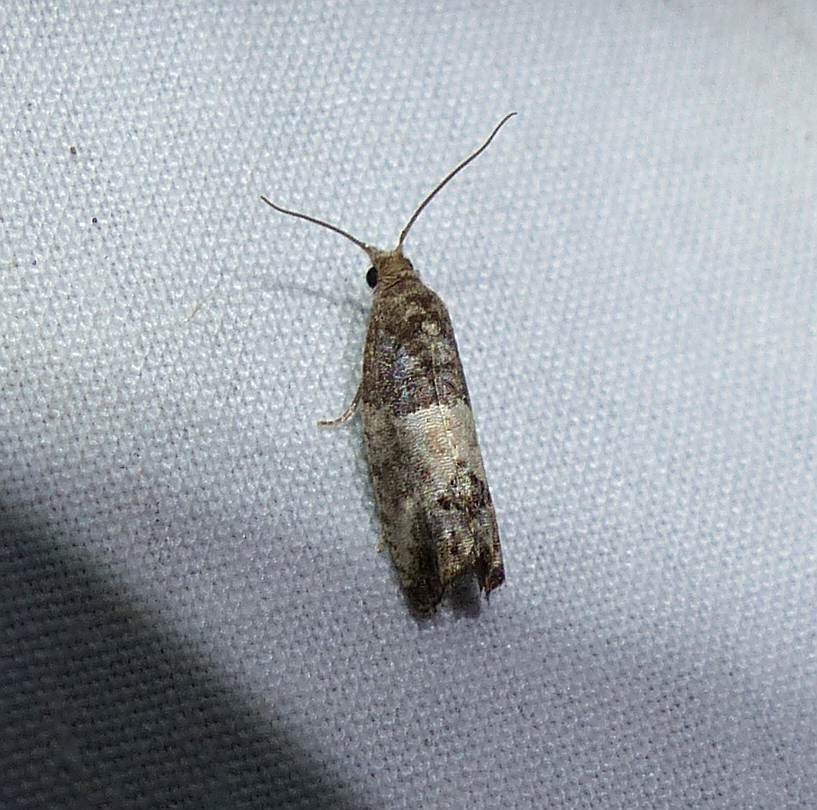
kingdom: Animalia
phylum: Arthropoda
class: Insecta
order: Lepidoptera
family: Tortricidae
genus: Spilonota
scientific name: Spilonota ocellana
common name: Bud moth
